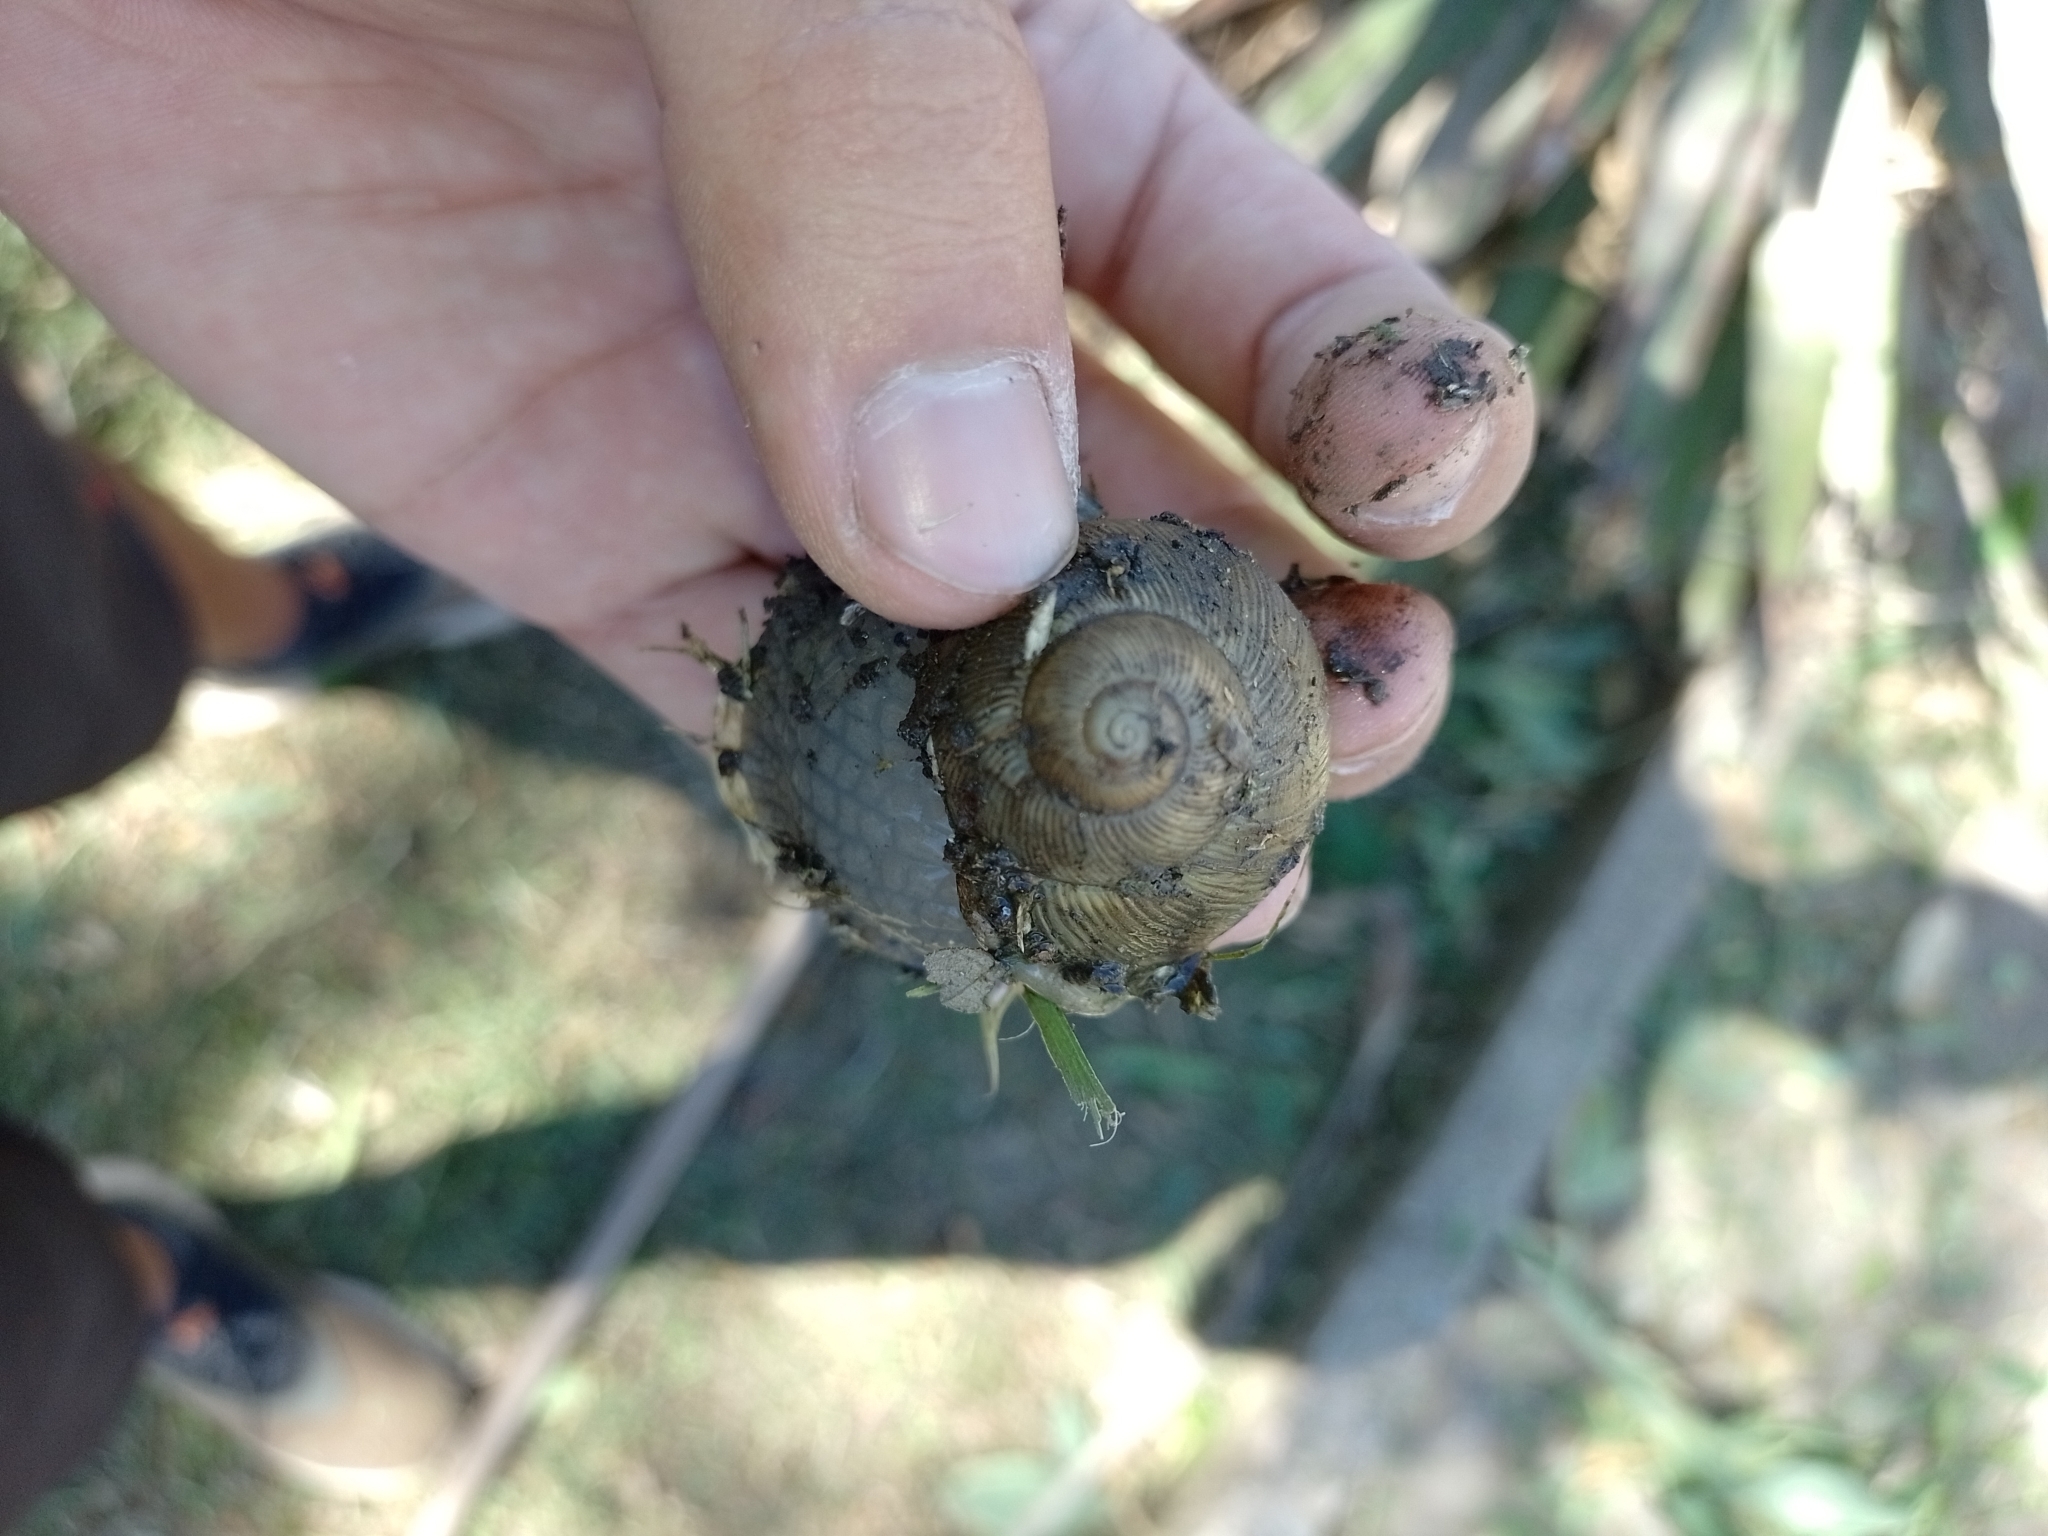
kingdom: Animalia
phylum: Mollusca
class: Gastropoda
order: Stylommatophora
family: Strophocheilidae
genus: Megalobulimus
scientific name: Megalobulimus
